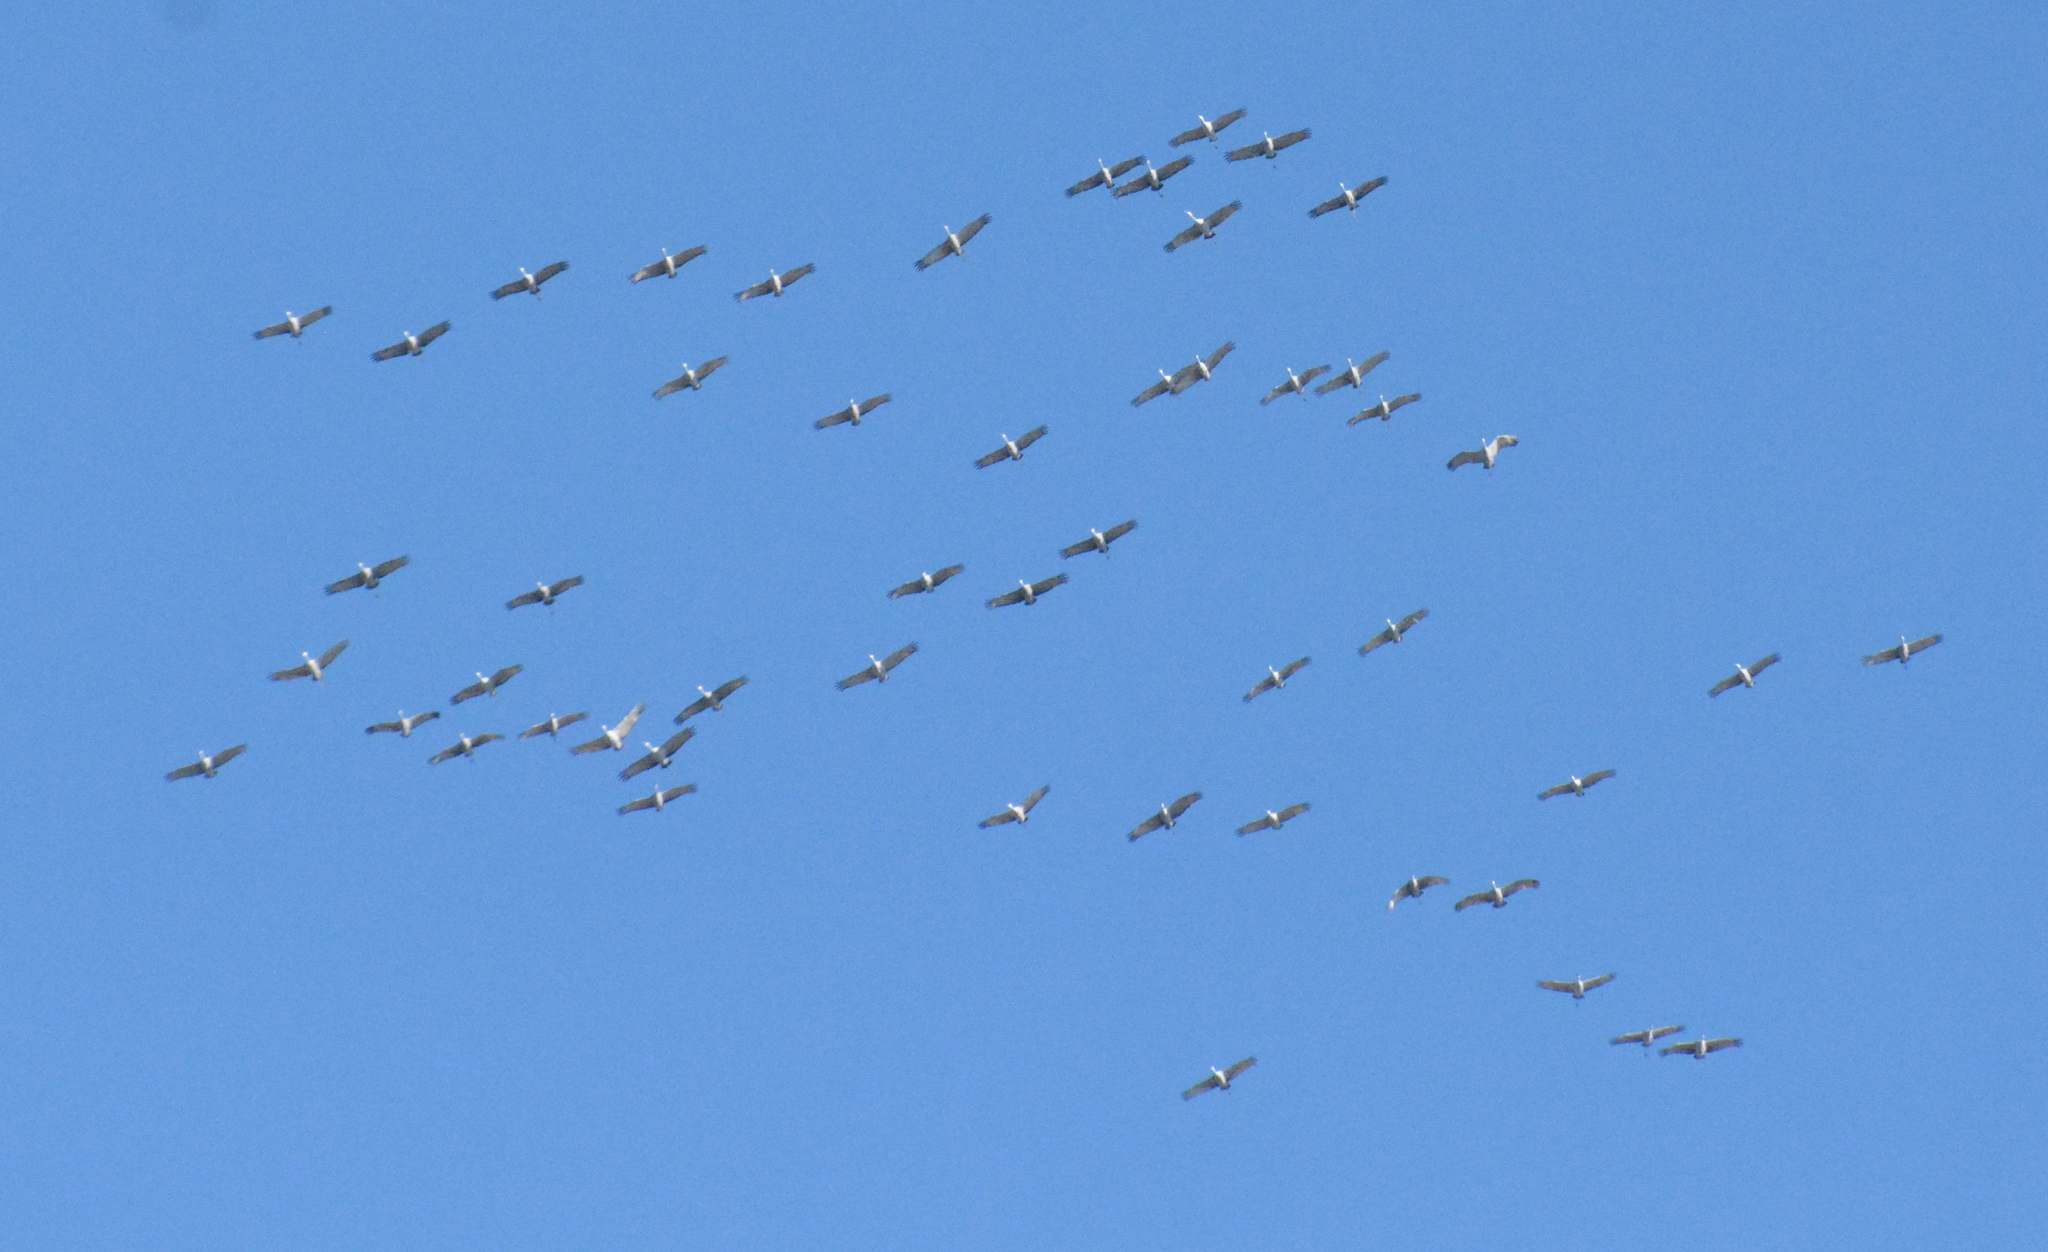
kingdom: Animalia
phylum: Chordata
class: Aves
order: Gruiformes
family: Gruidae
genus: Grus
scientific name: Grus canadensis
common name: Sandhill crane
